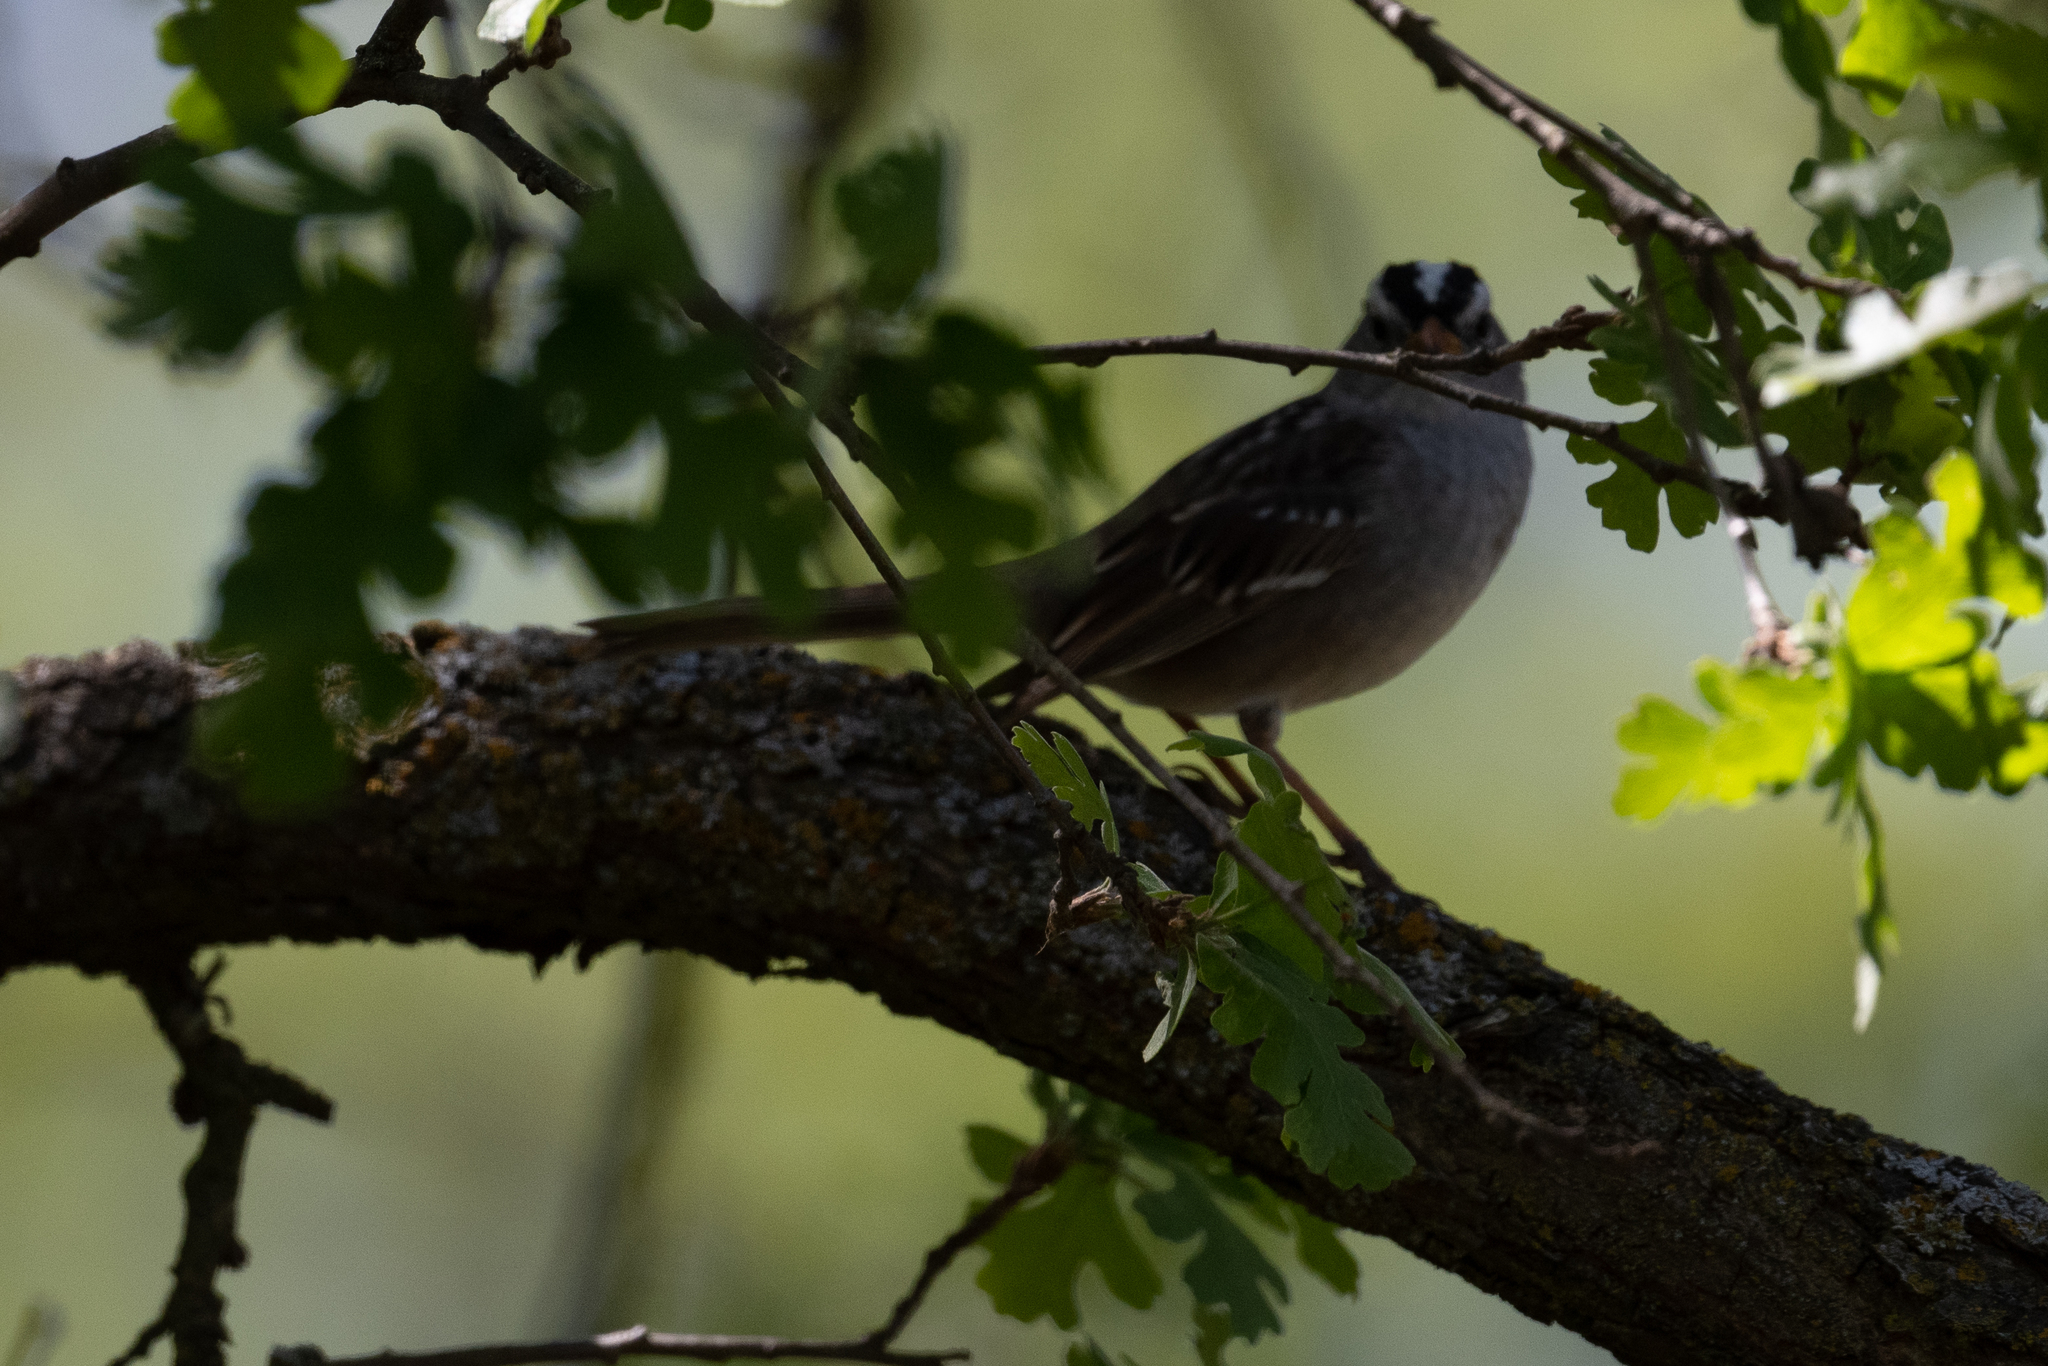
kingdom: Animalia
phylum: Chordata
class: Aves
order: Passeriformes
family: Passerellidae
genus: Zonotrichia
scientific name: Zonotrichia leucophrys
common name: White-crowned sparrow
